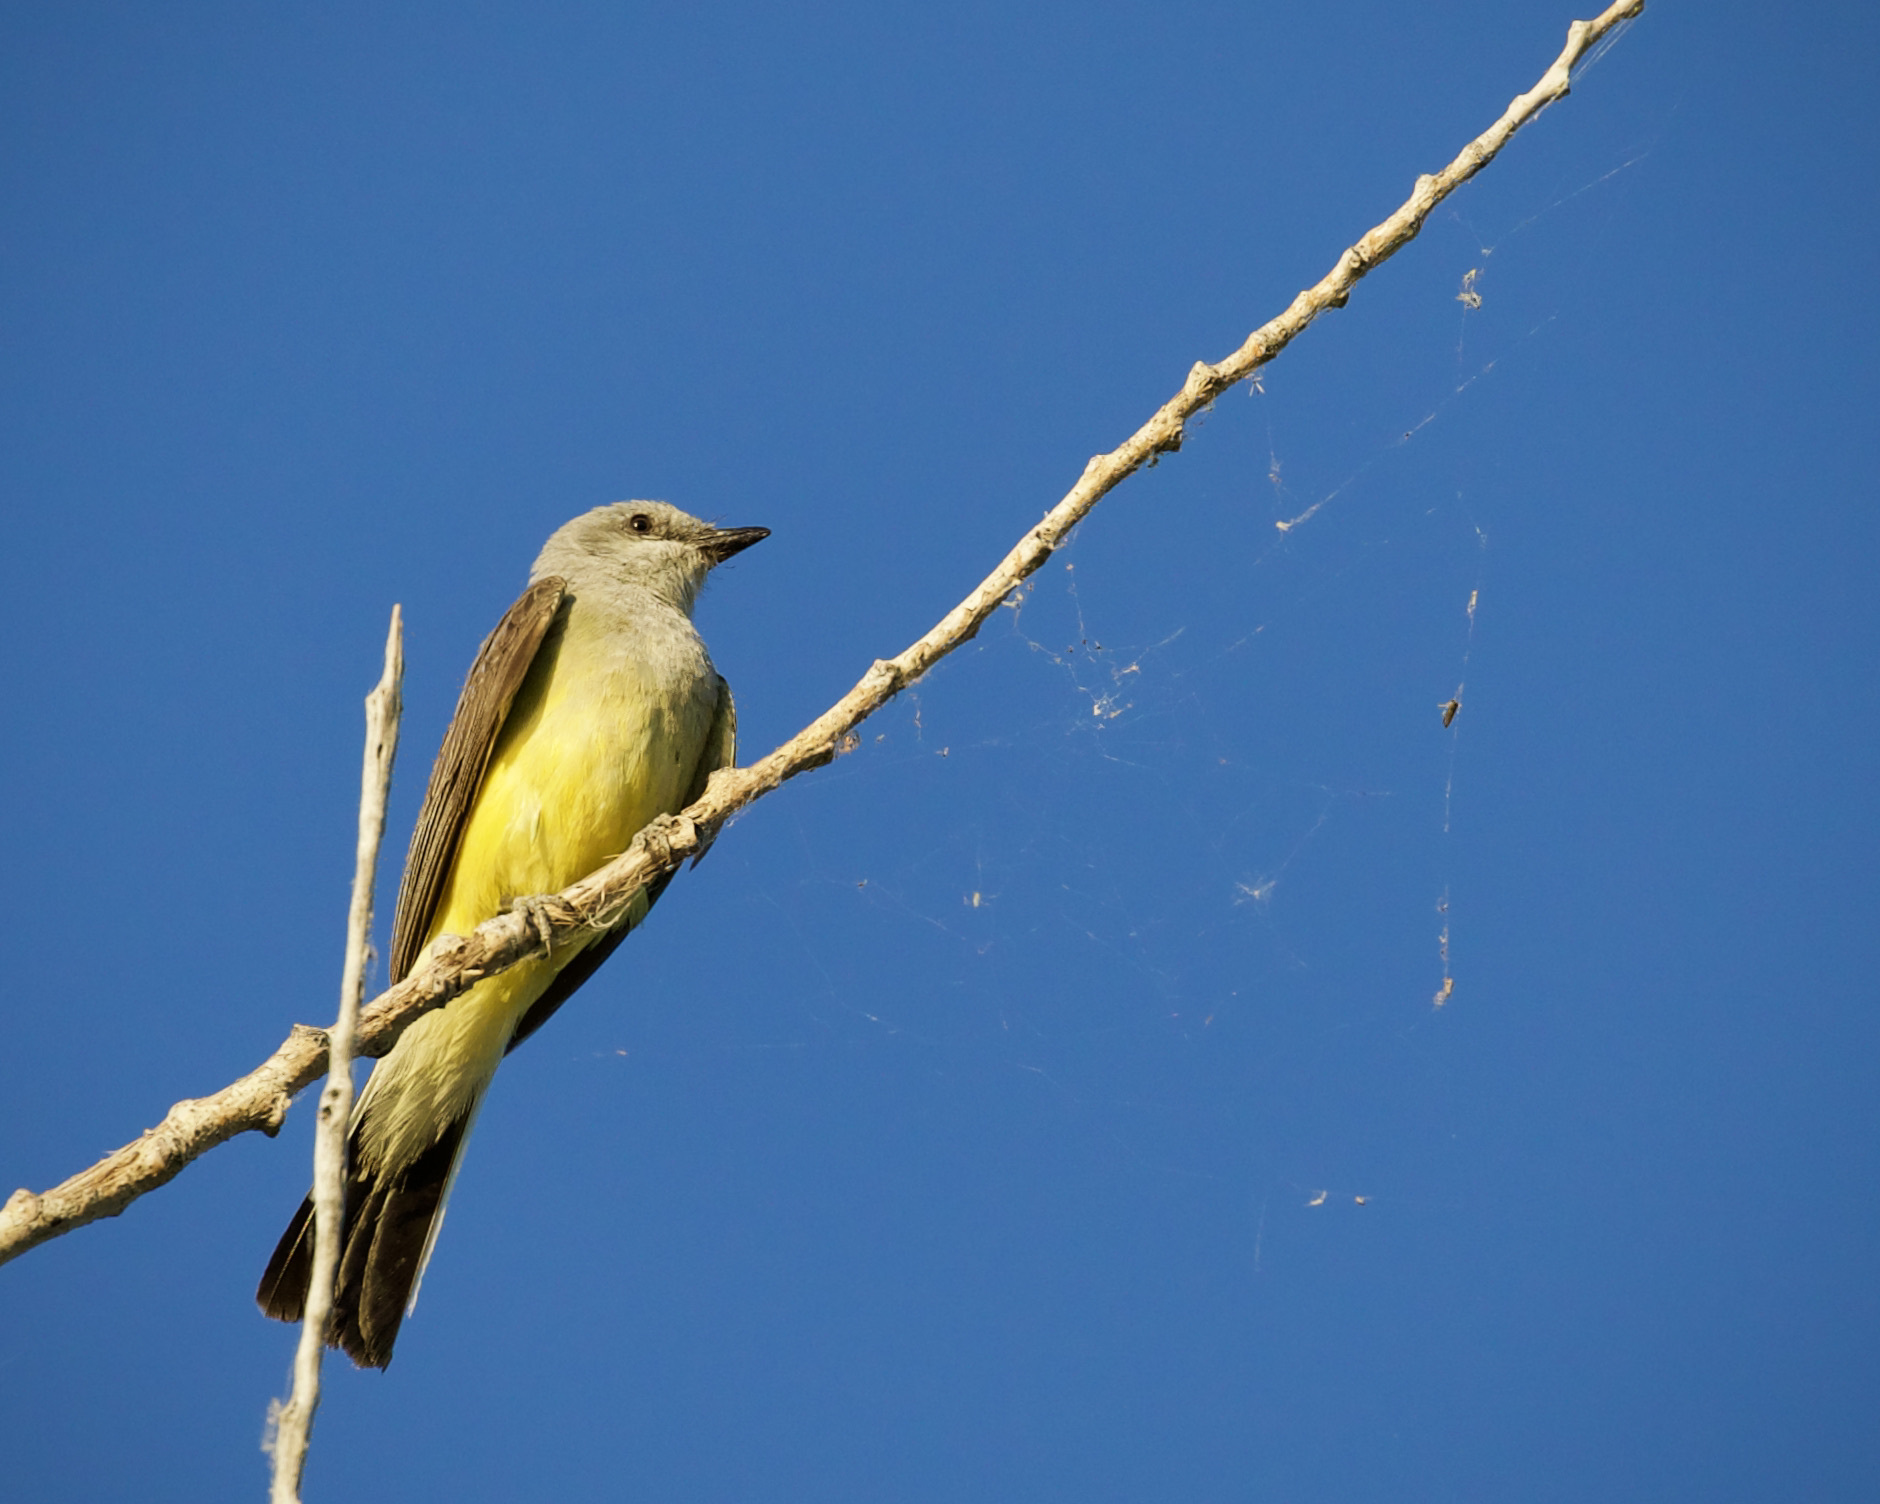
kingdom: Animalia
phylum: Chordata
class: Aves
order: Passeriformes
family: Tyrannidae
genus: Tyrannus
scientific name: Tyrannus verticalis
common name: Western kingbird
